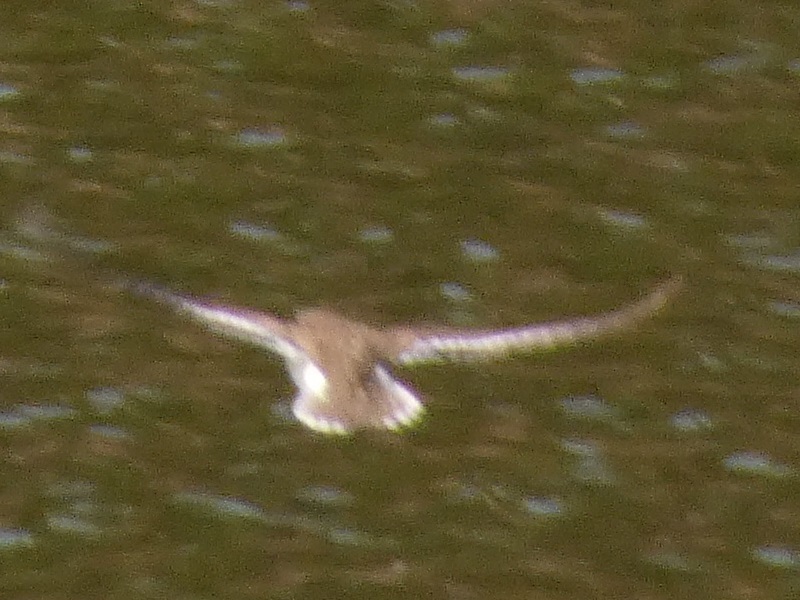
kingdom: Animalia
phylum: Chordata
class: Aves
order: Charadriiformes
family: Scolopacidae
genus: Actitis
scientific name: Actitis hypoleucos
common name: Common sandpiper
